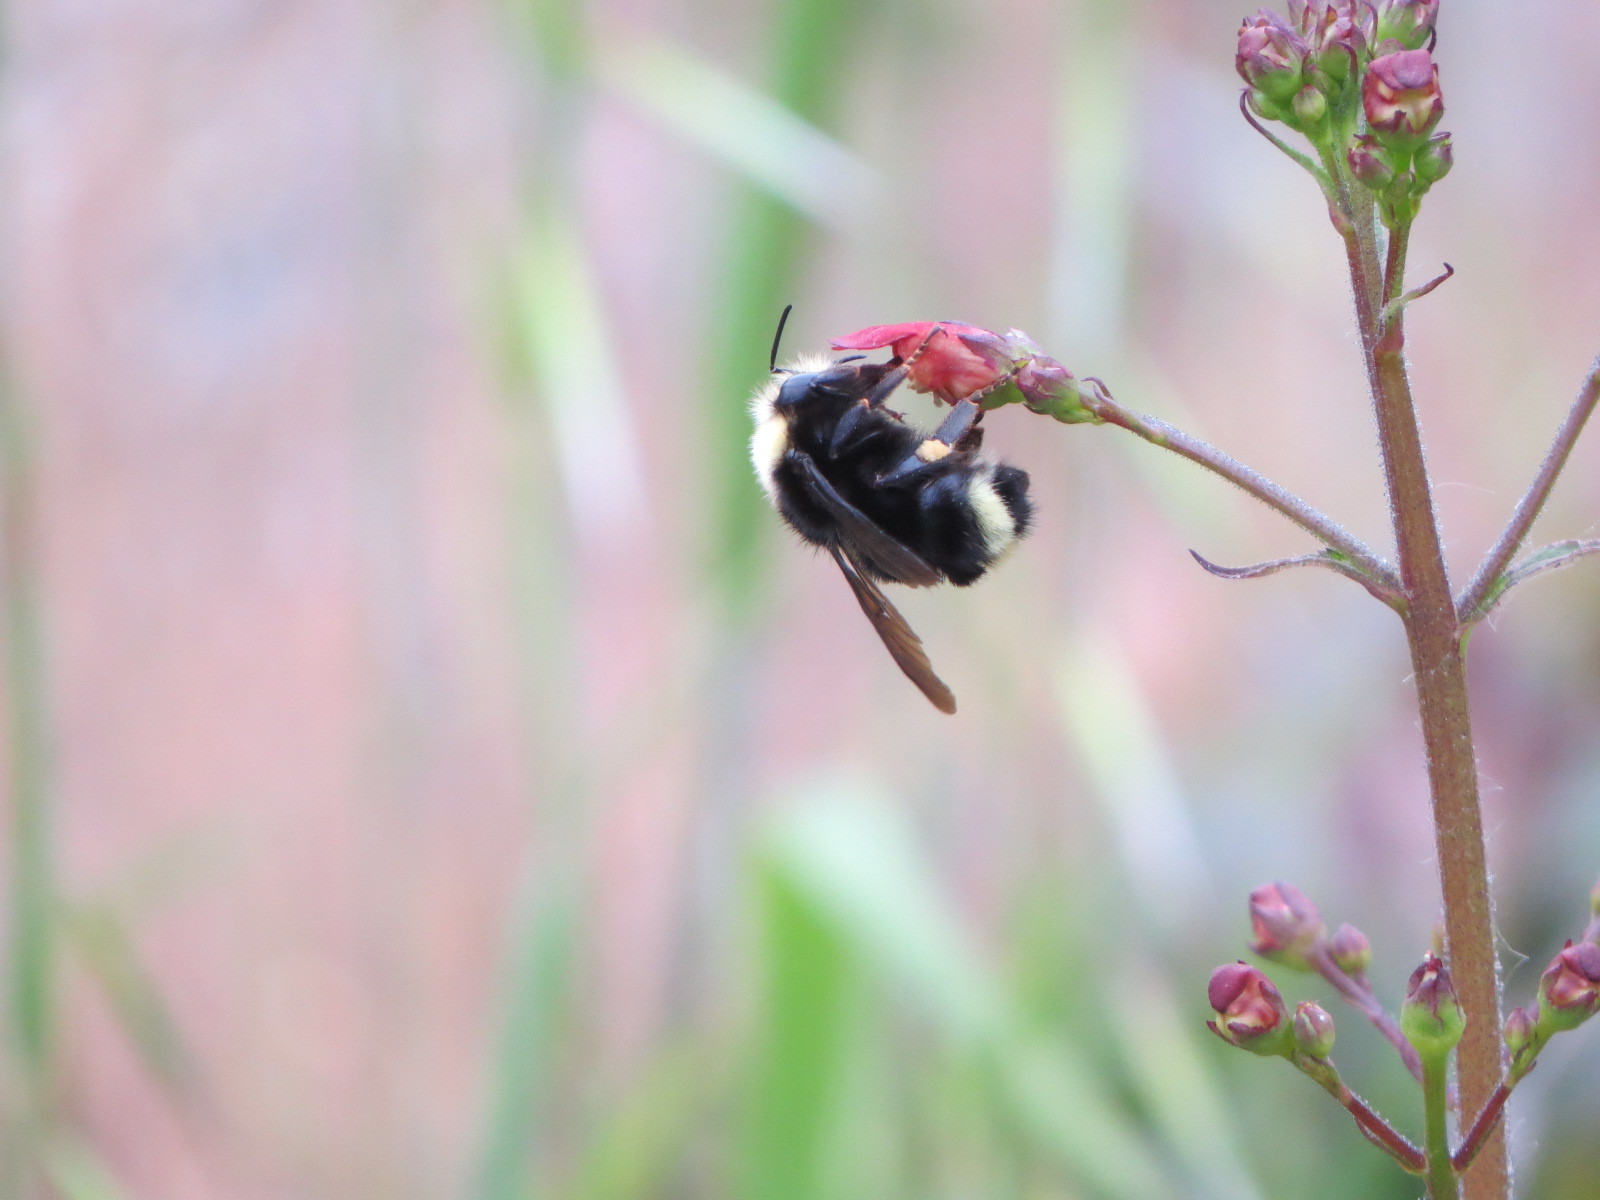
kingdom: Animalia
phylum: Arthropoda
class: Insecta
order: Hymenoptera
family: Apidae
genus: Bombus
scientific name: Bombus caliginosus
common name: Obscure bumble bee
